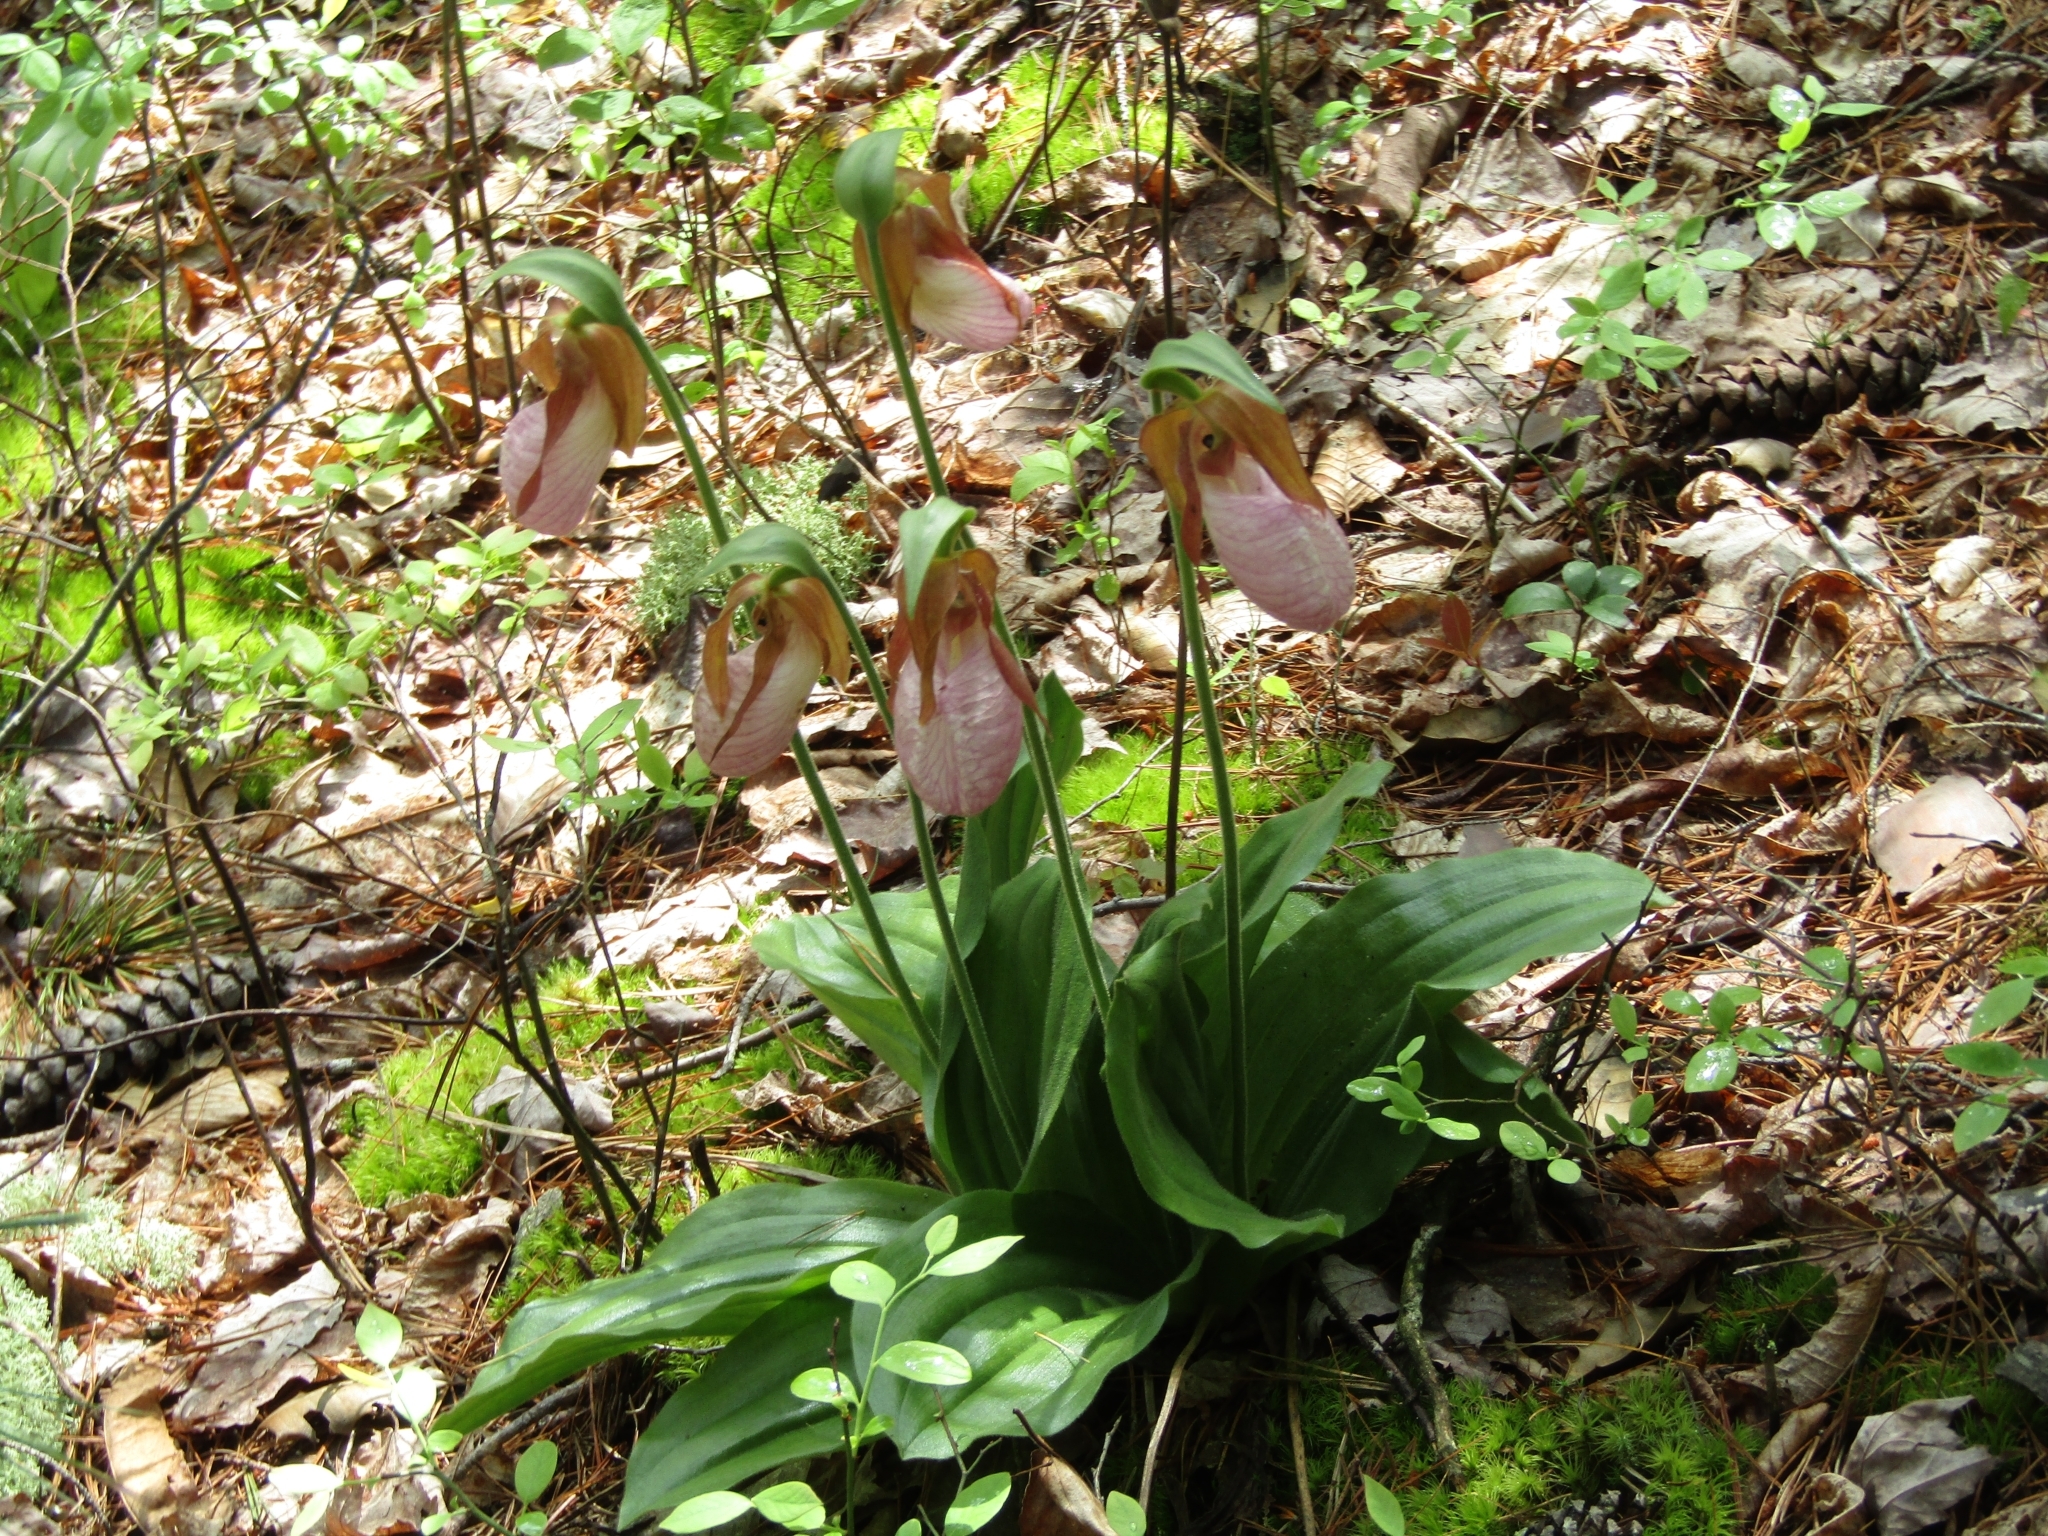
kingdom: Plantae
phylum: Tracheophyta
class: Liliopsida
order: Asparagales
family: Orchidaceae
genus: Cypripedium
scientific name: Cypripedium acaule
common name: Pink lady's-slipper
